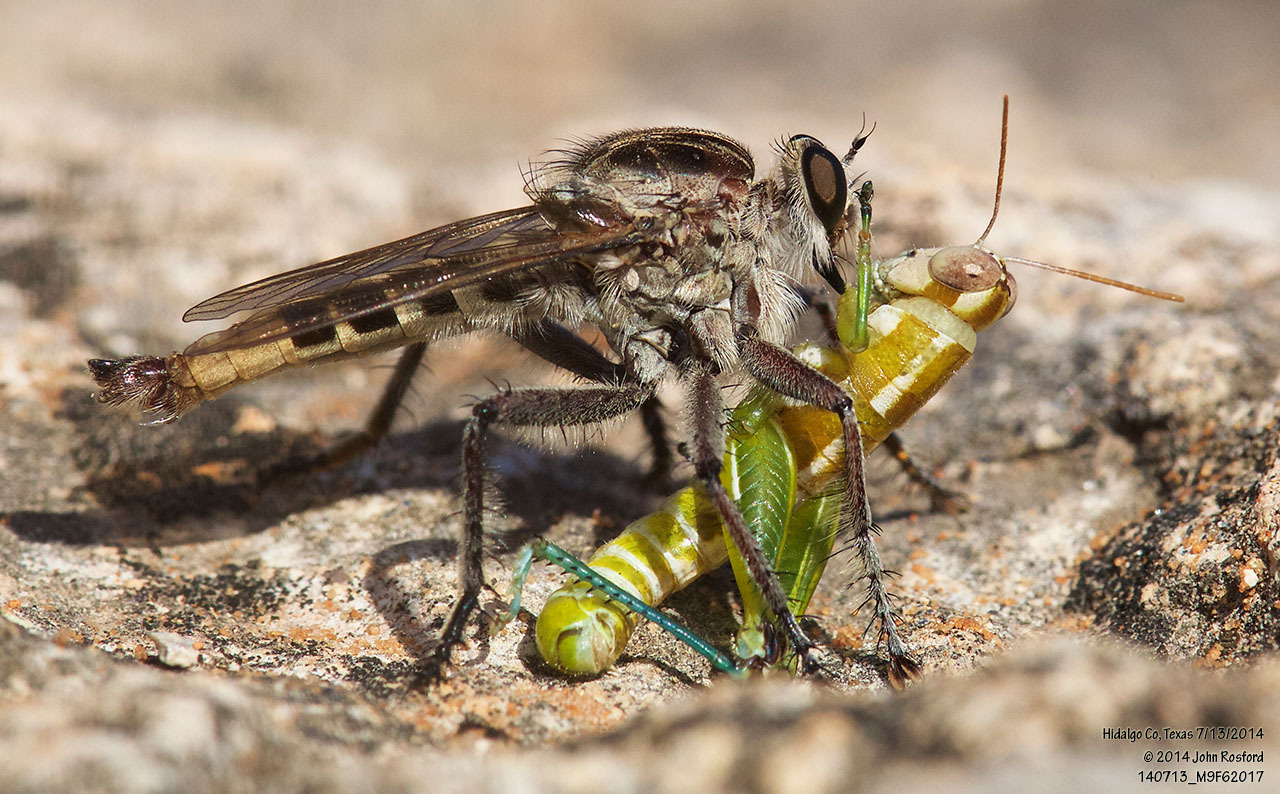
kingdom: Animalia
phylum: Arthropoda
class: Insecta
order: Diptera
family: Asilidae
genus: Triorla
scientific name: Triorla interrupta
